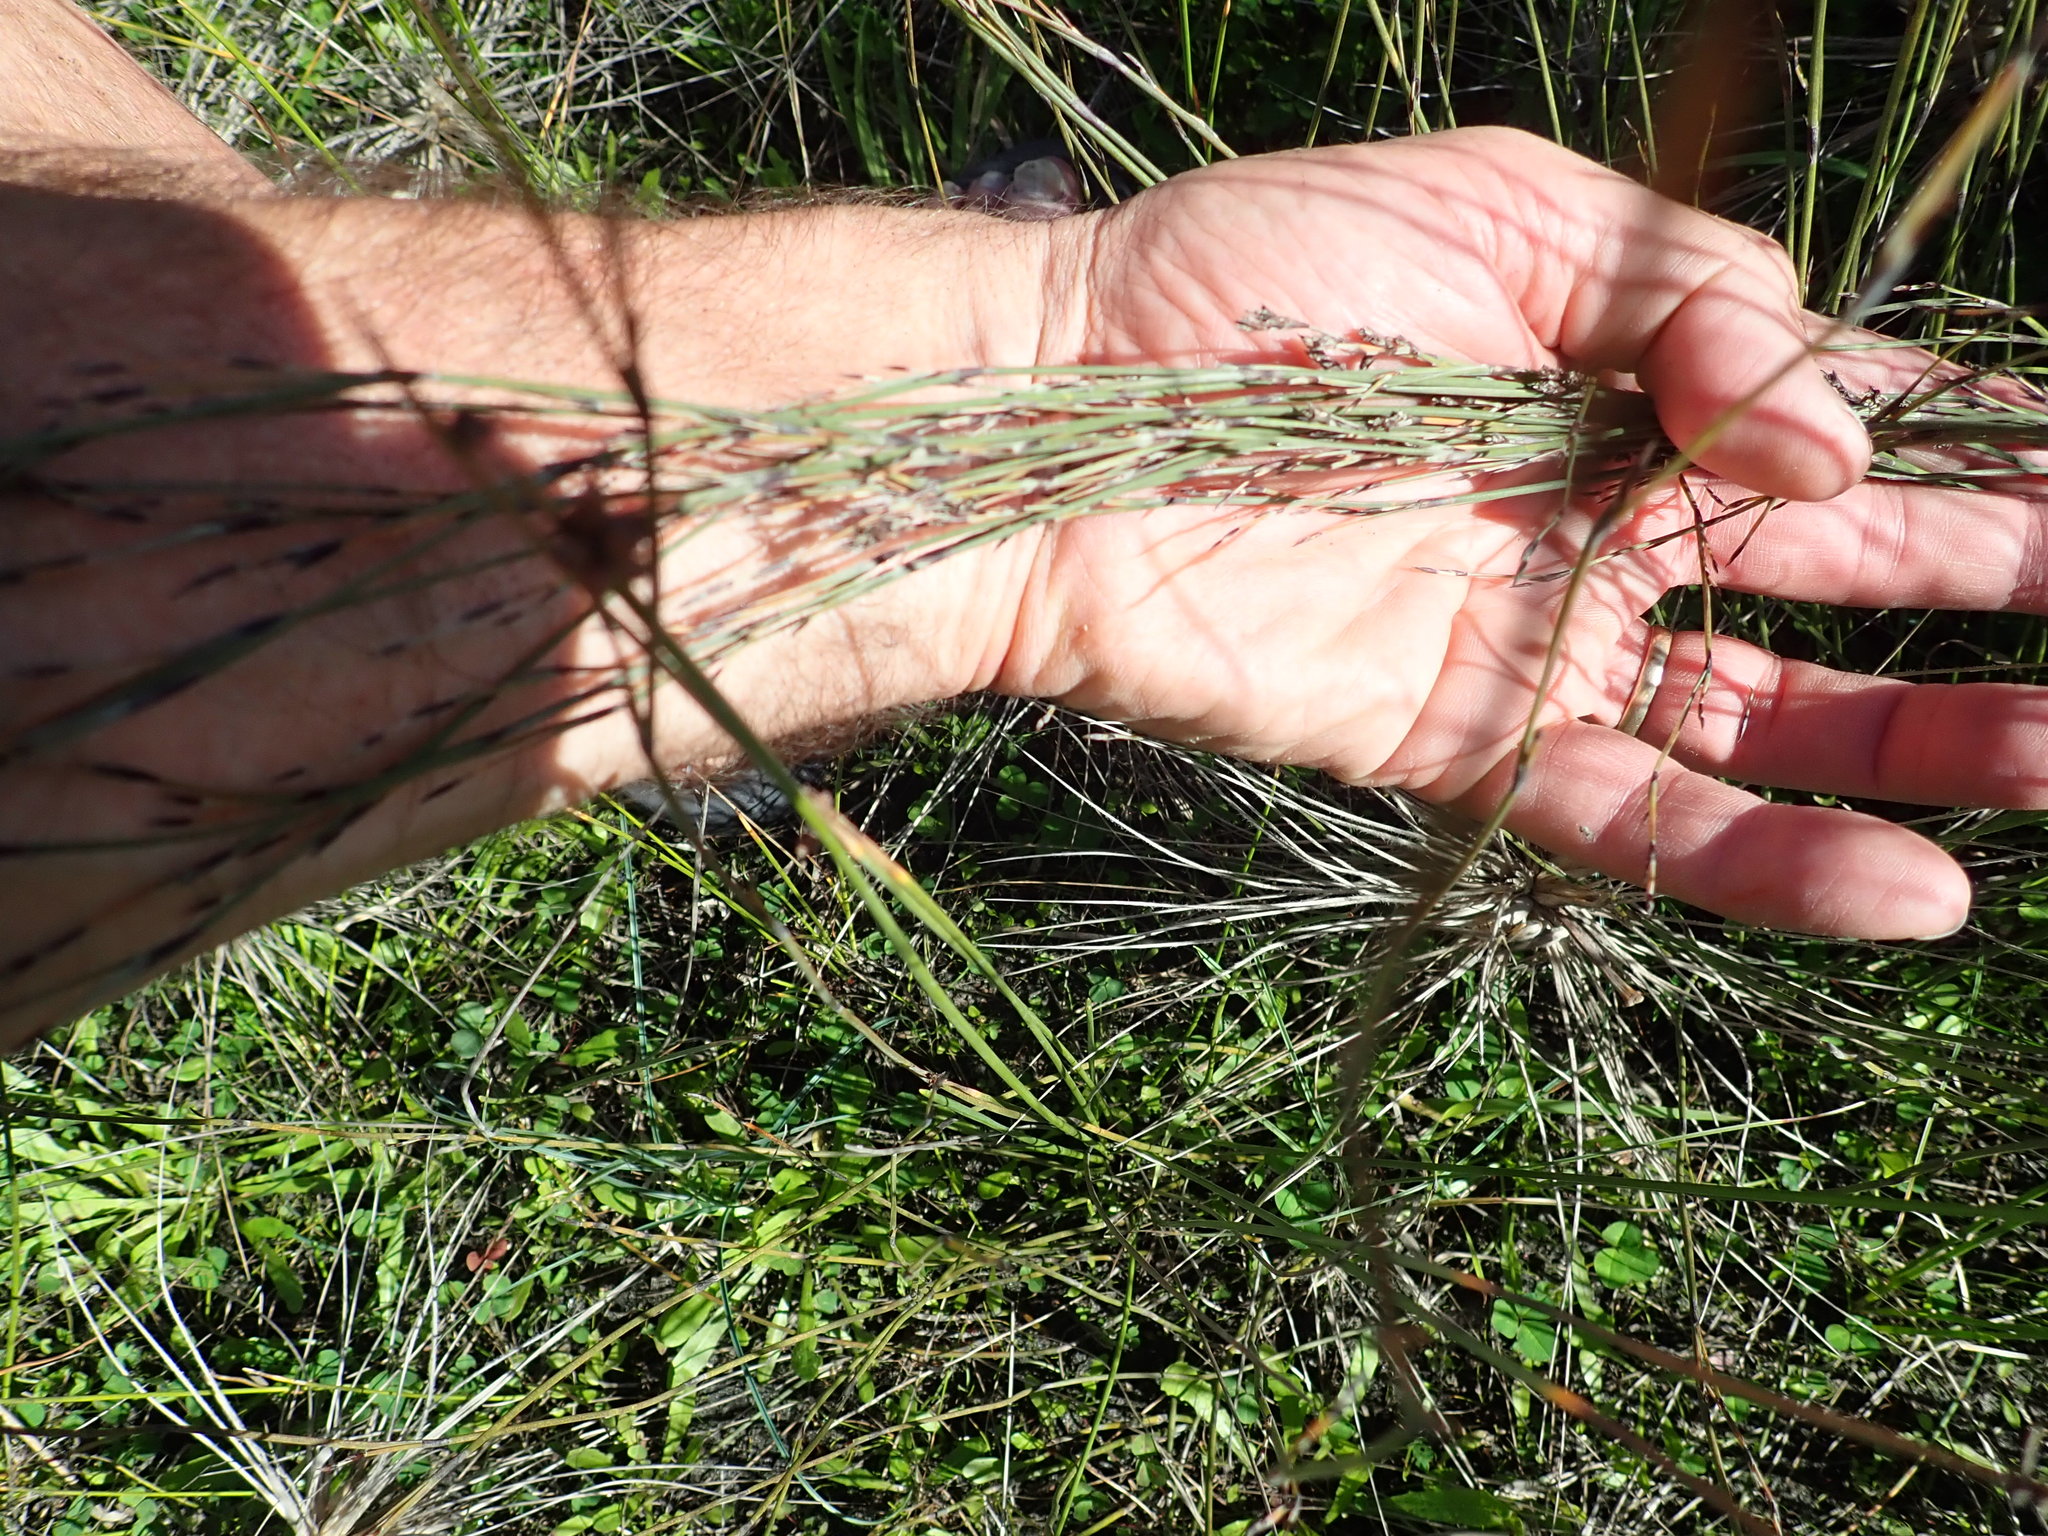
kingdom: Plantae
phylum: Tracheophyta
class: Liliopsida
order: Poales
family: Restionaceae
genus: Apodasmia
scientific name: Apodasmia similis
